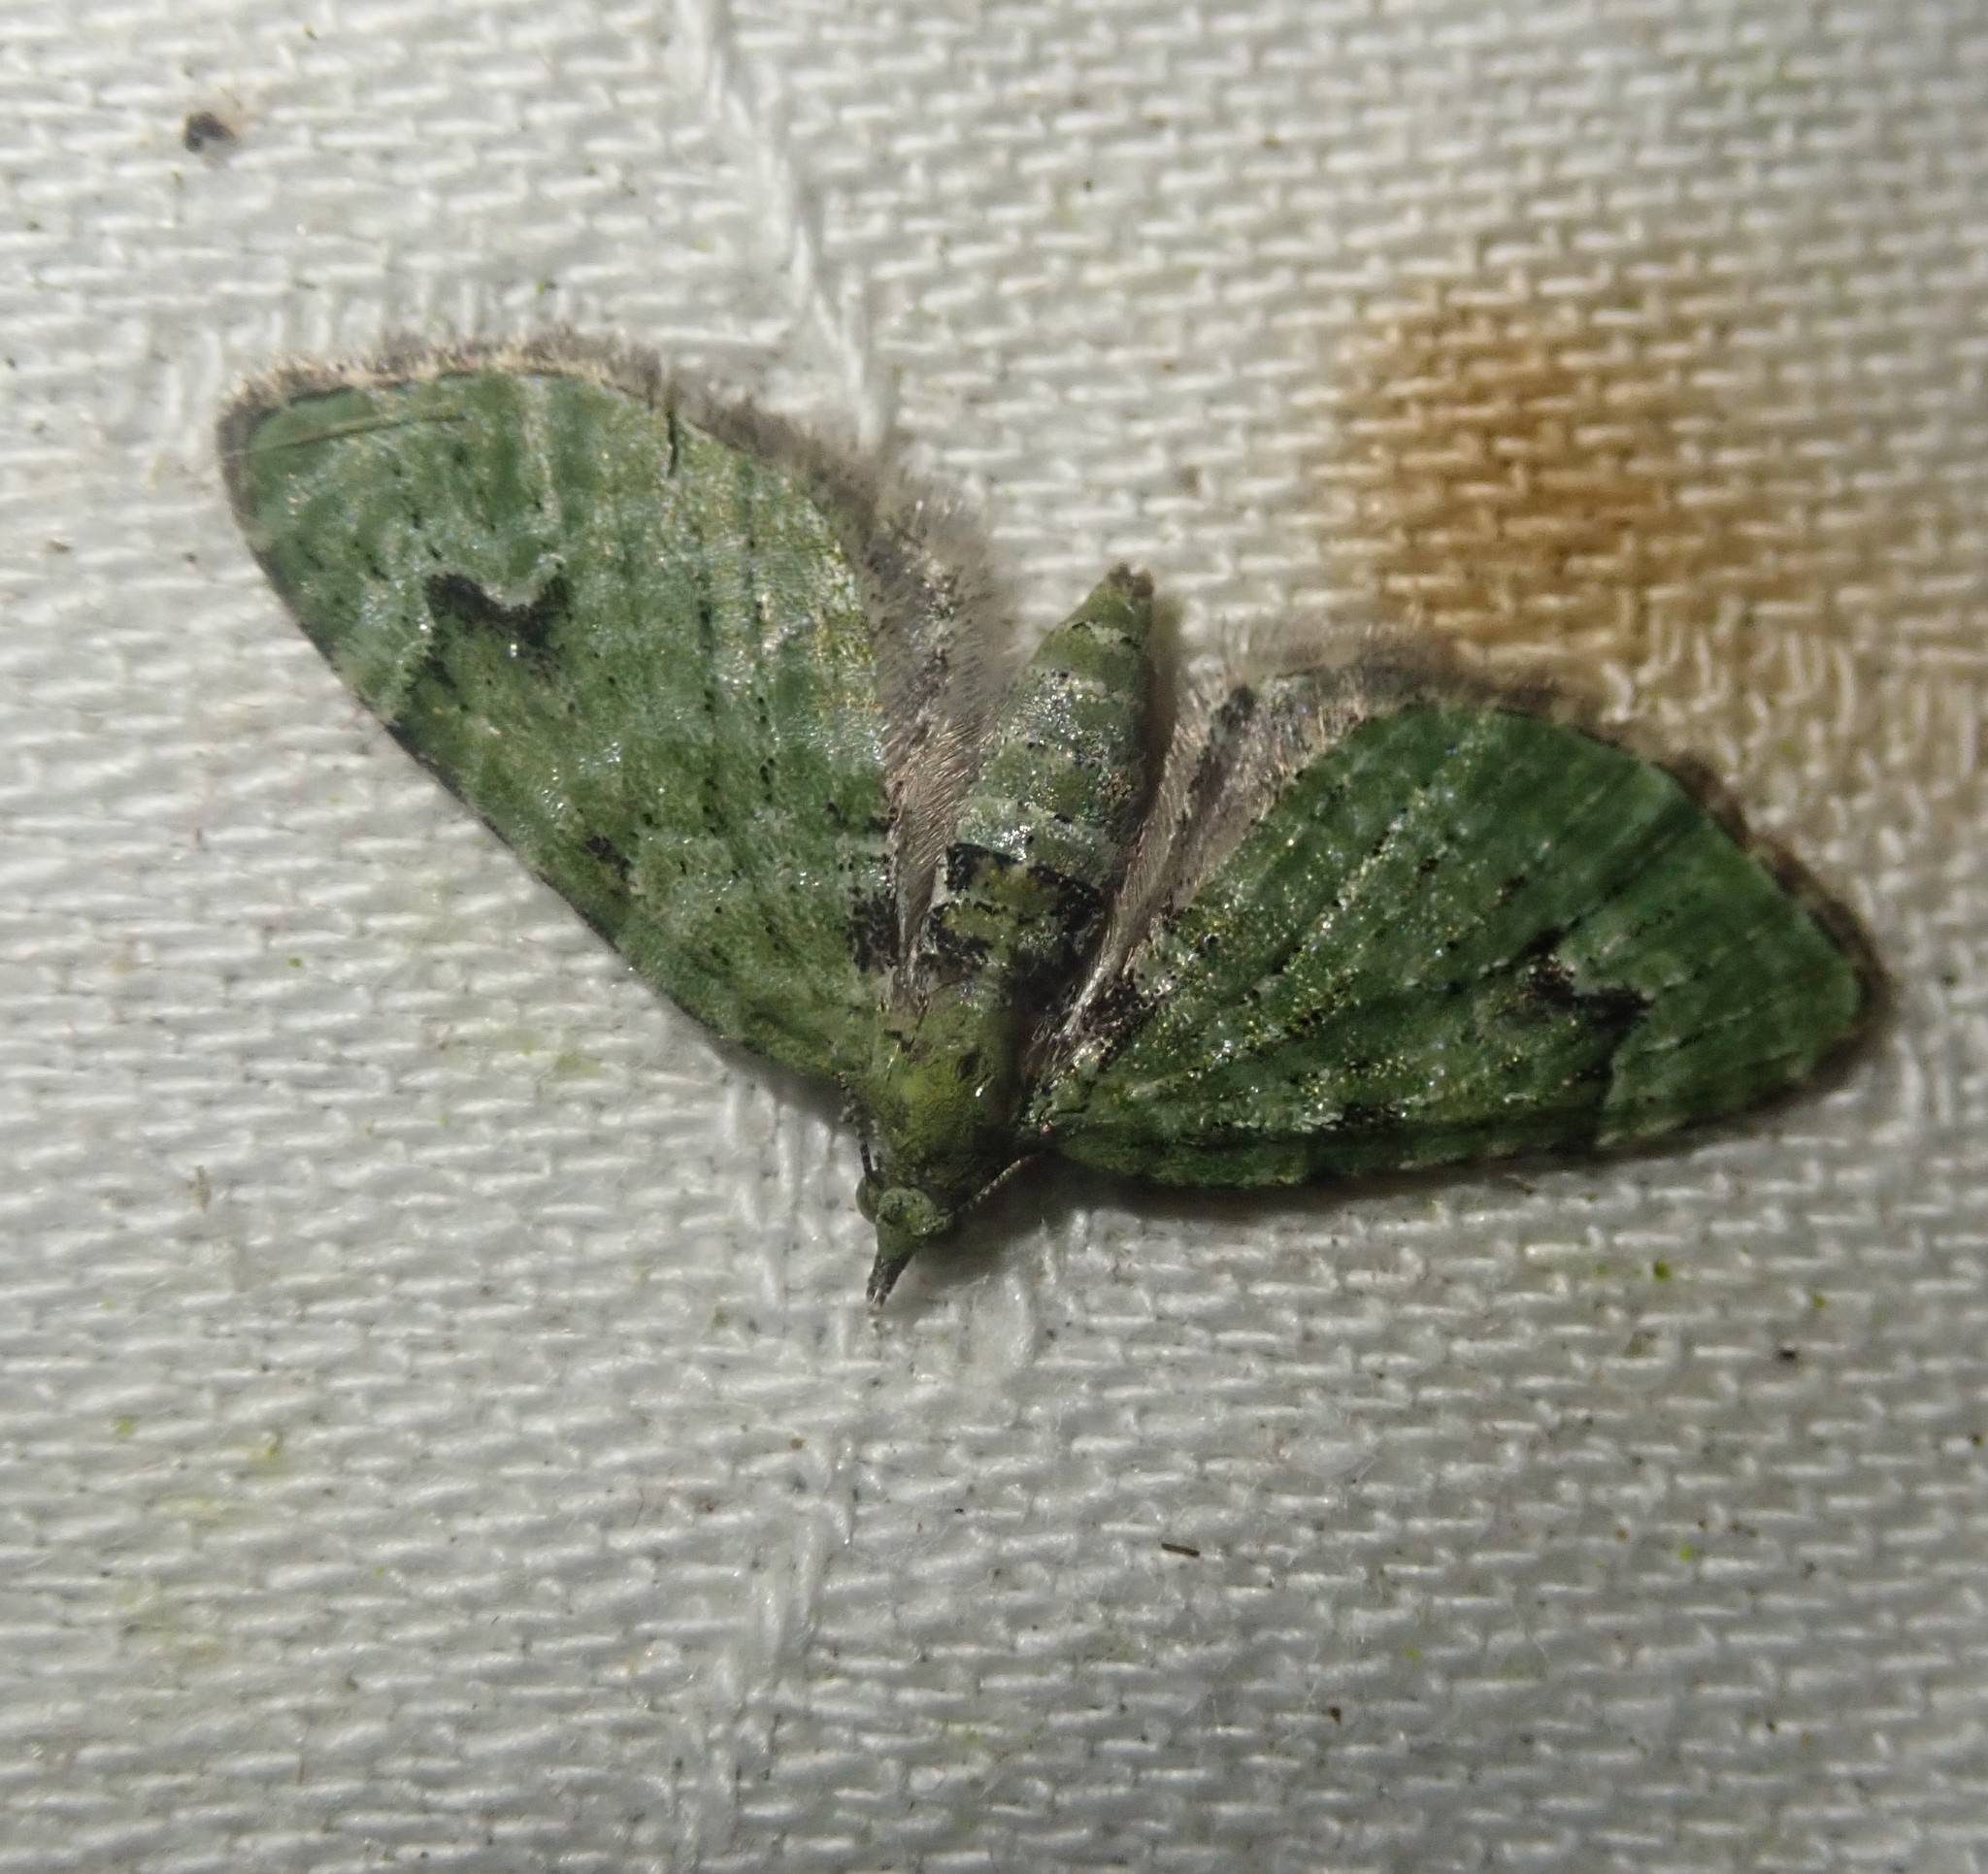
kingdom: Animalia
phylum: Arthropoda
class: Insecta
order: Lepidoptera
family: Geometridae
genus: Chloroclystis
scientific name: Chloroclystis v-ata
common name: V-pug
